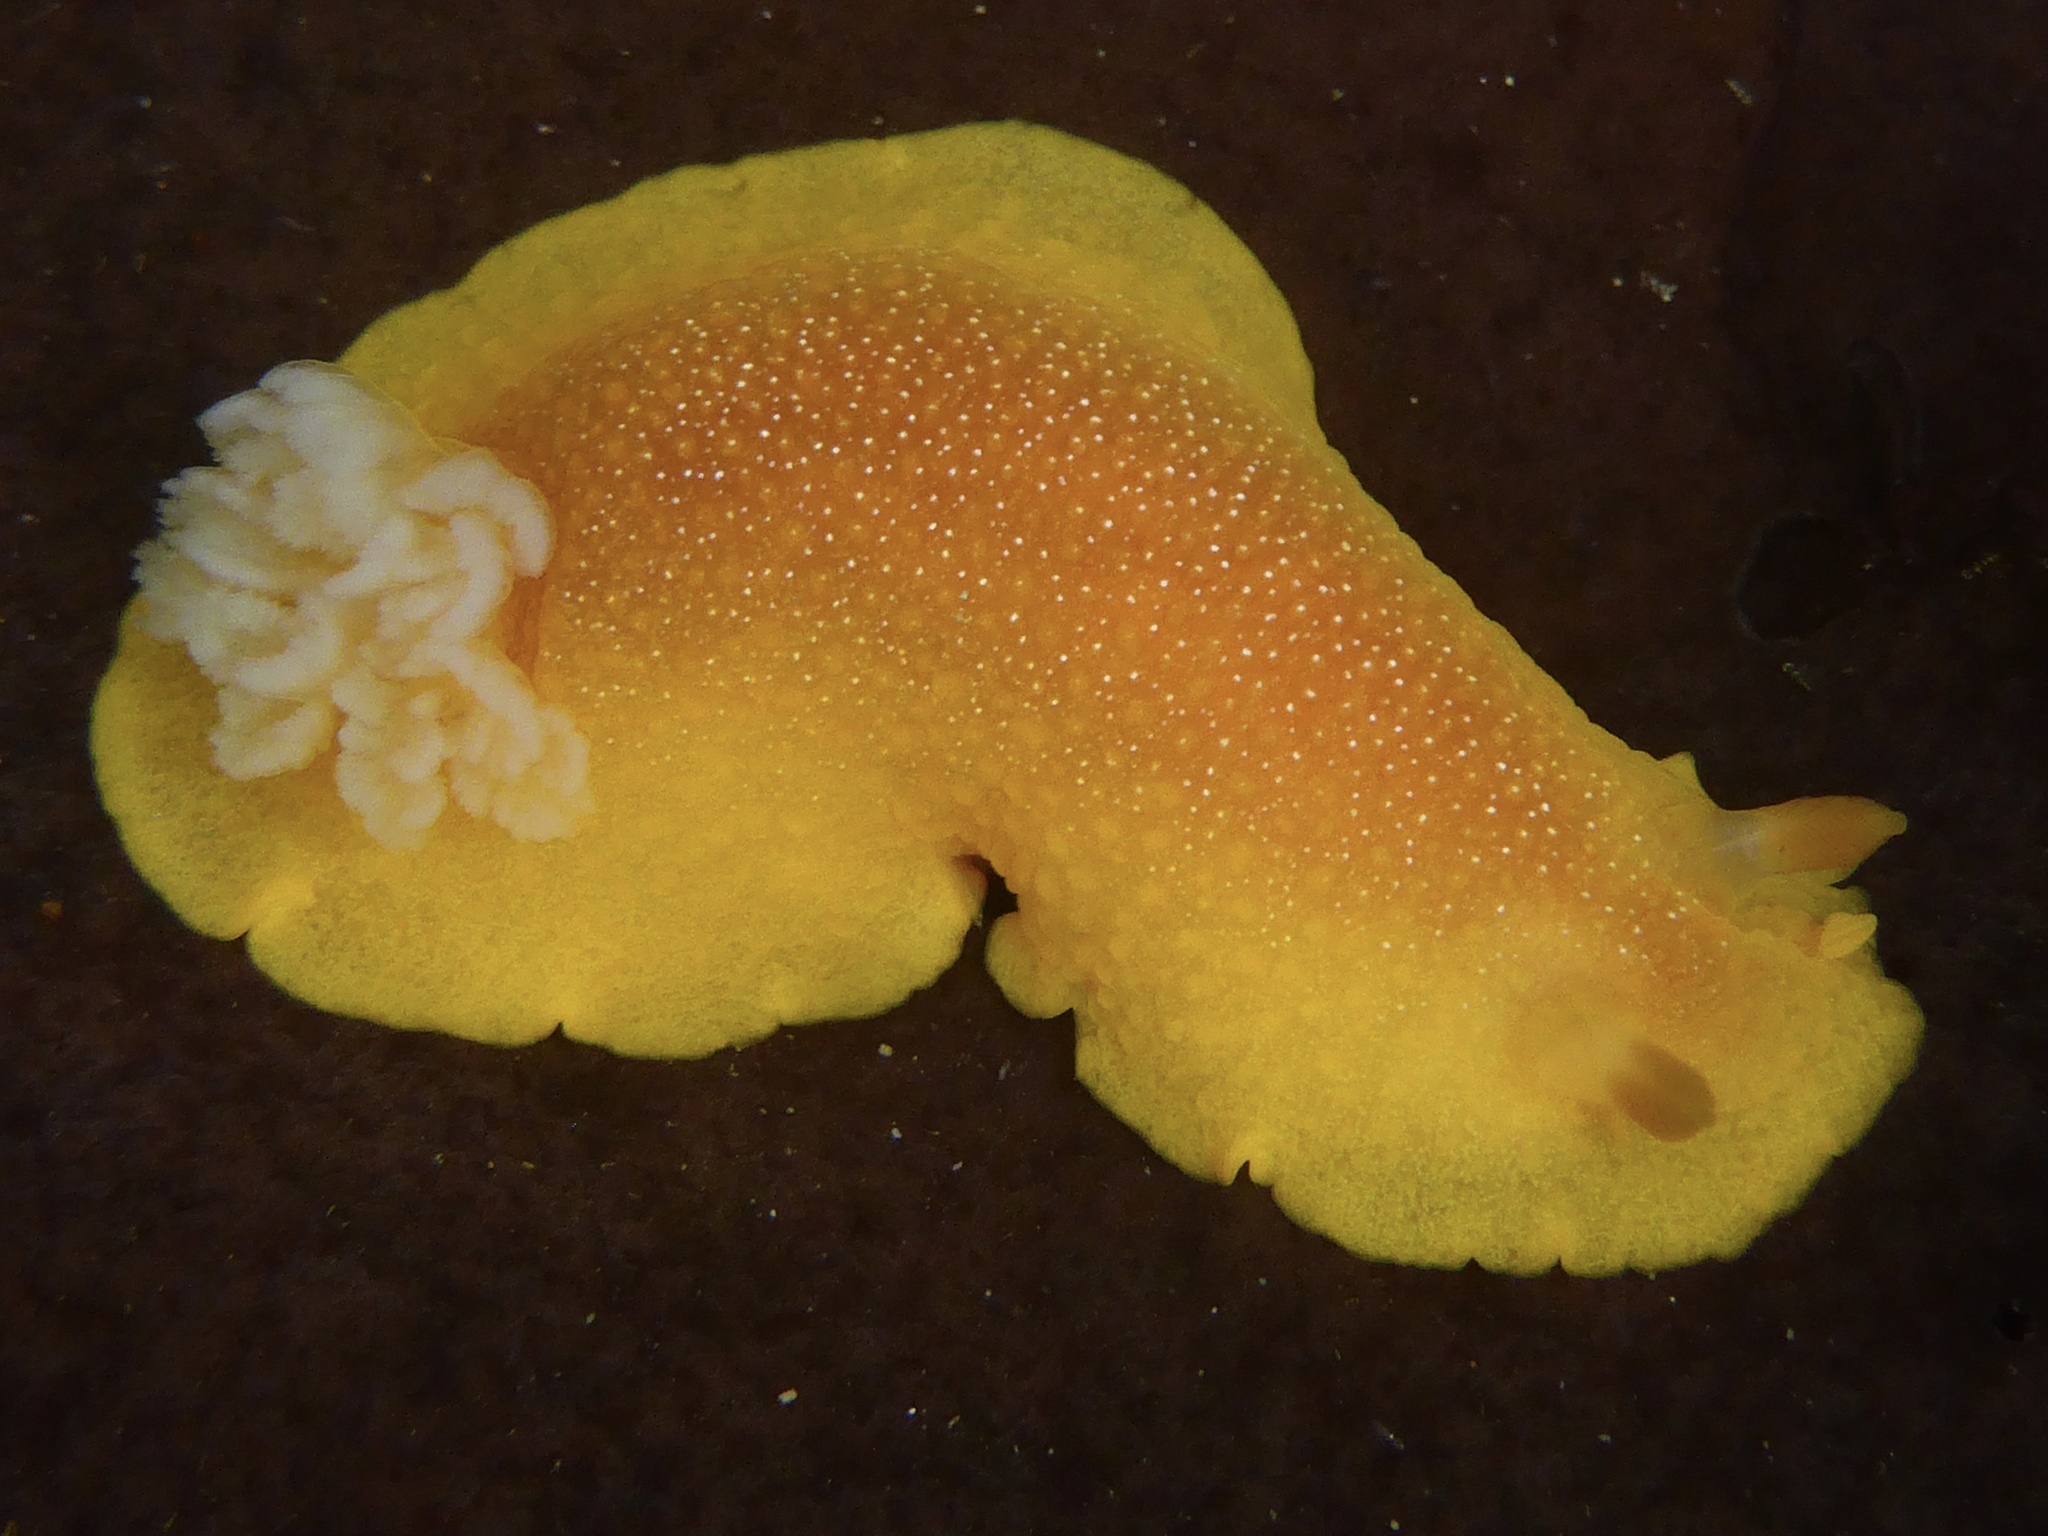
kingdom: Animalia
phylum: Mollusca
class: Gastropoda
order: Nudibranchia
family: Dendrodorididae
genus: Doriopsilla
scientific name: Doriopsilla albopunctata
